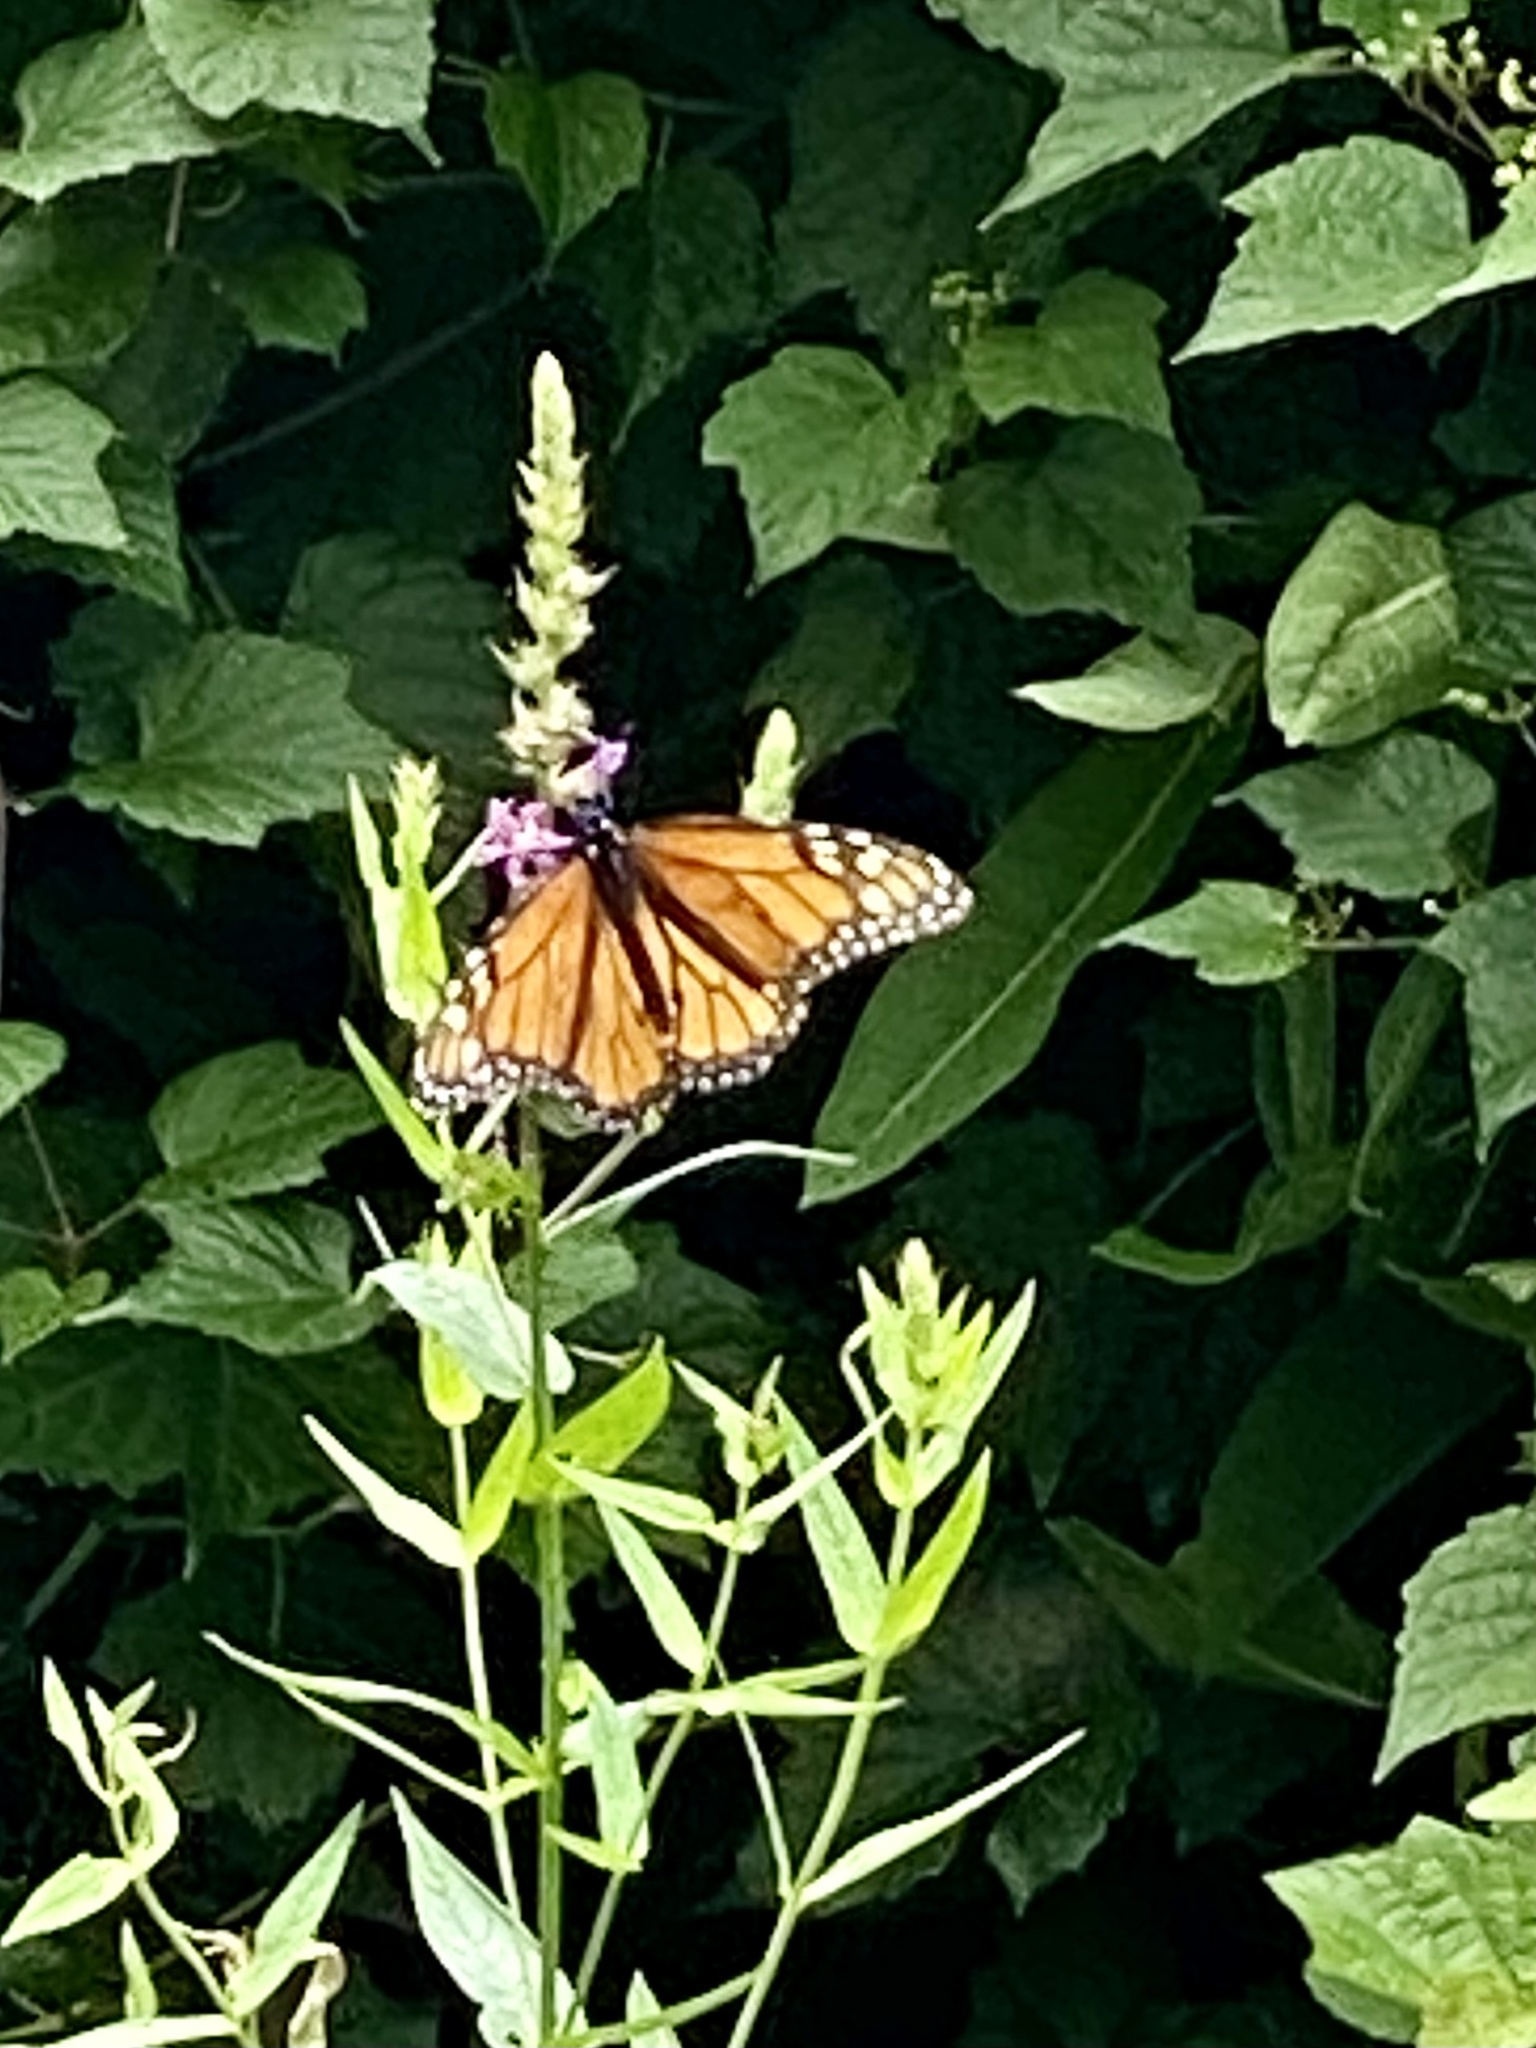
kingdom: Animalia
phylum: Arthropoda
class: Insecta
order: Lepidoptera
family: Nymphalidae
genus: Danaus
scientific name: Danaus plexippus
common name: Monarch
